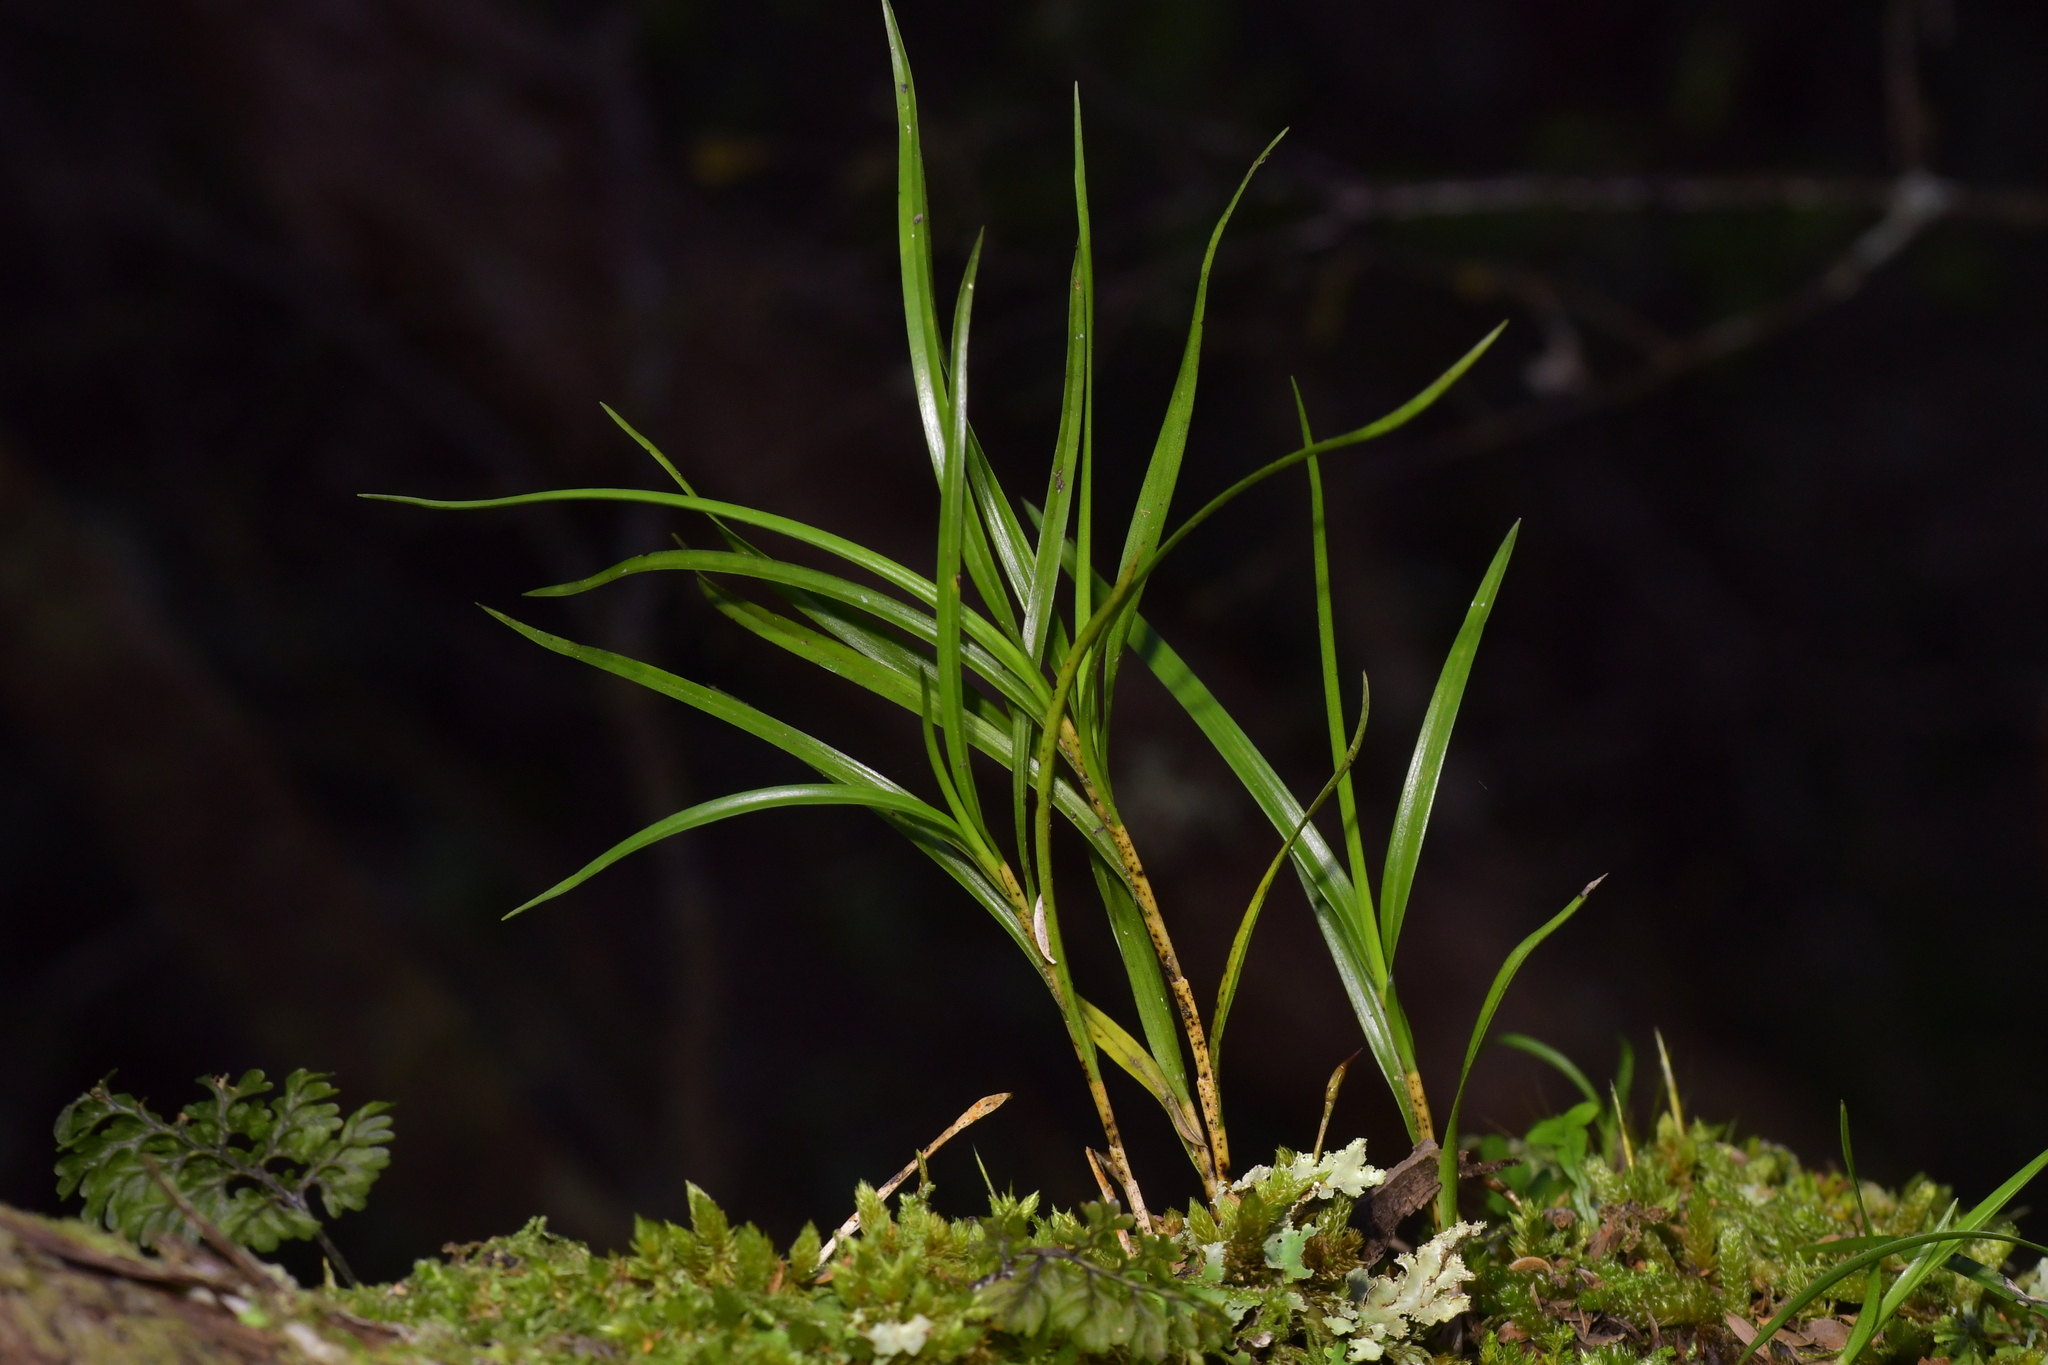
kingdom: Plantae
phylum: Tracheophyta
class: Liliopsida
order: Asparagales
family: Orchidaceae
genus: Earina
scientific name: Earina mucronata
